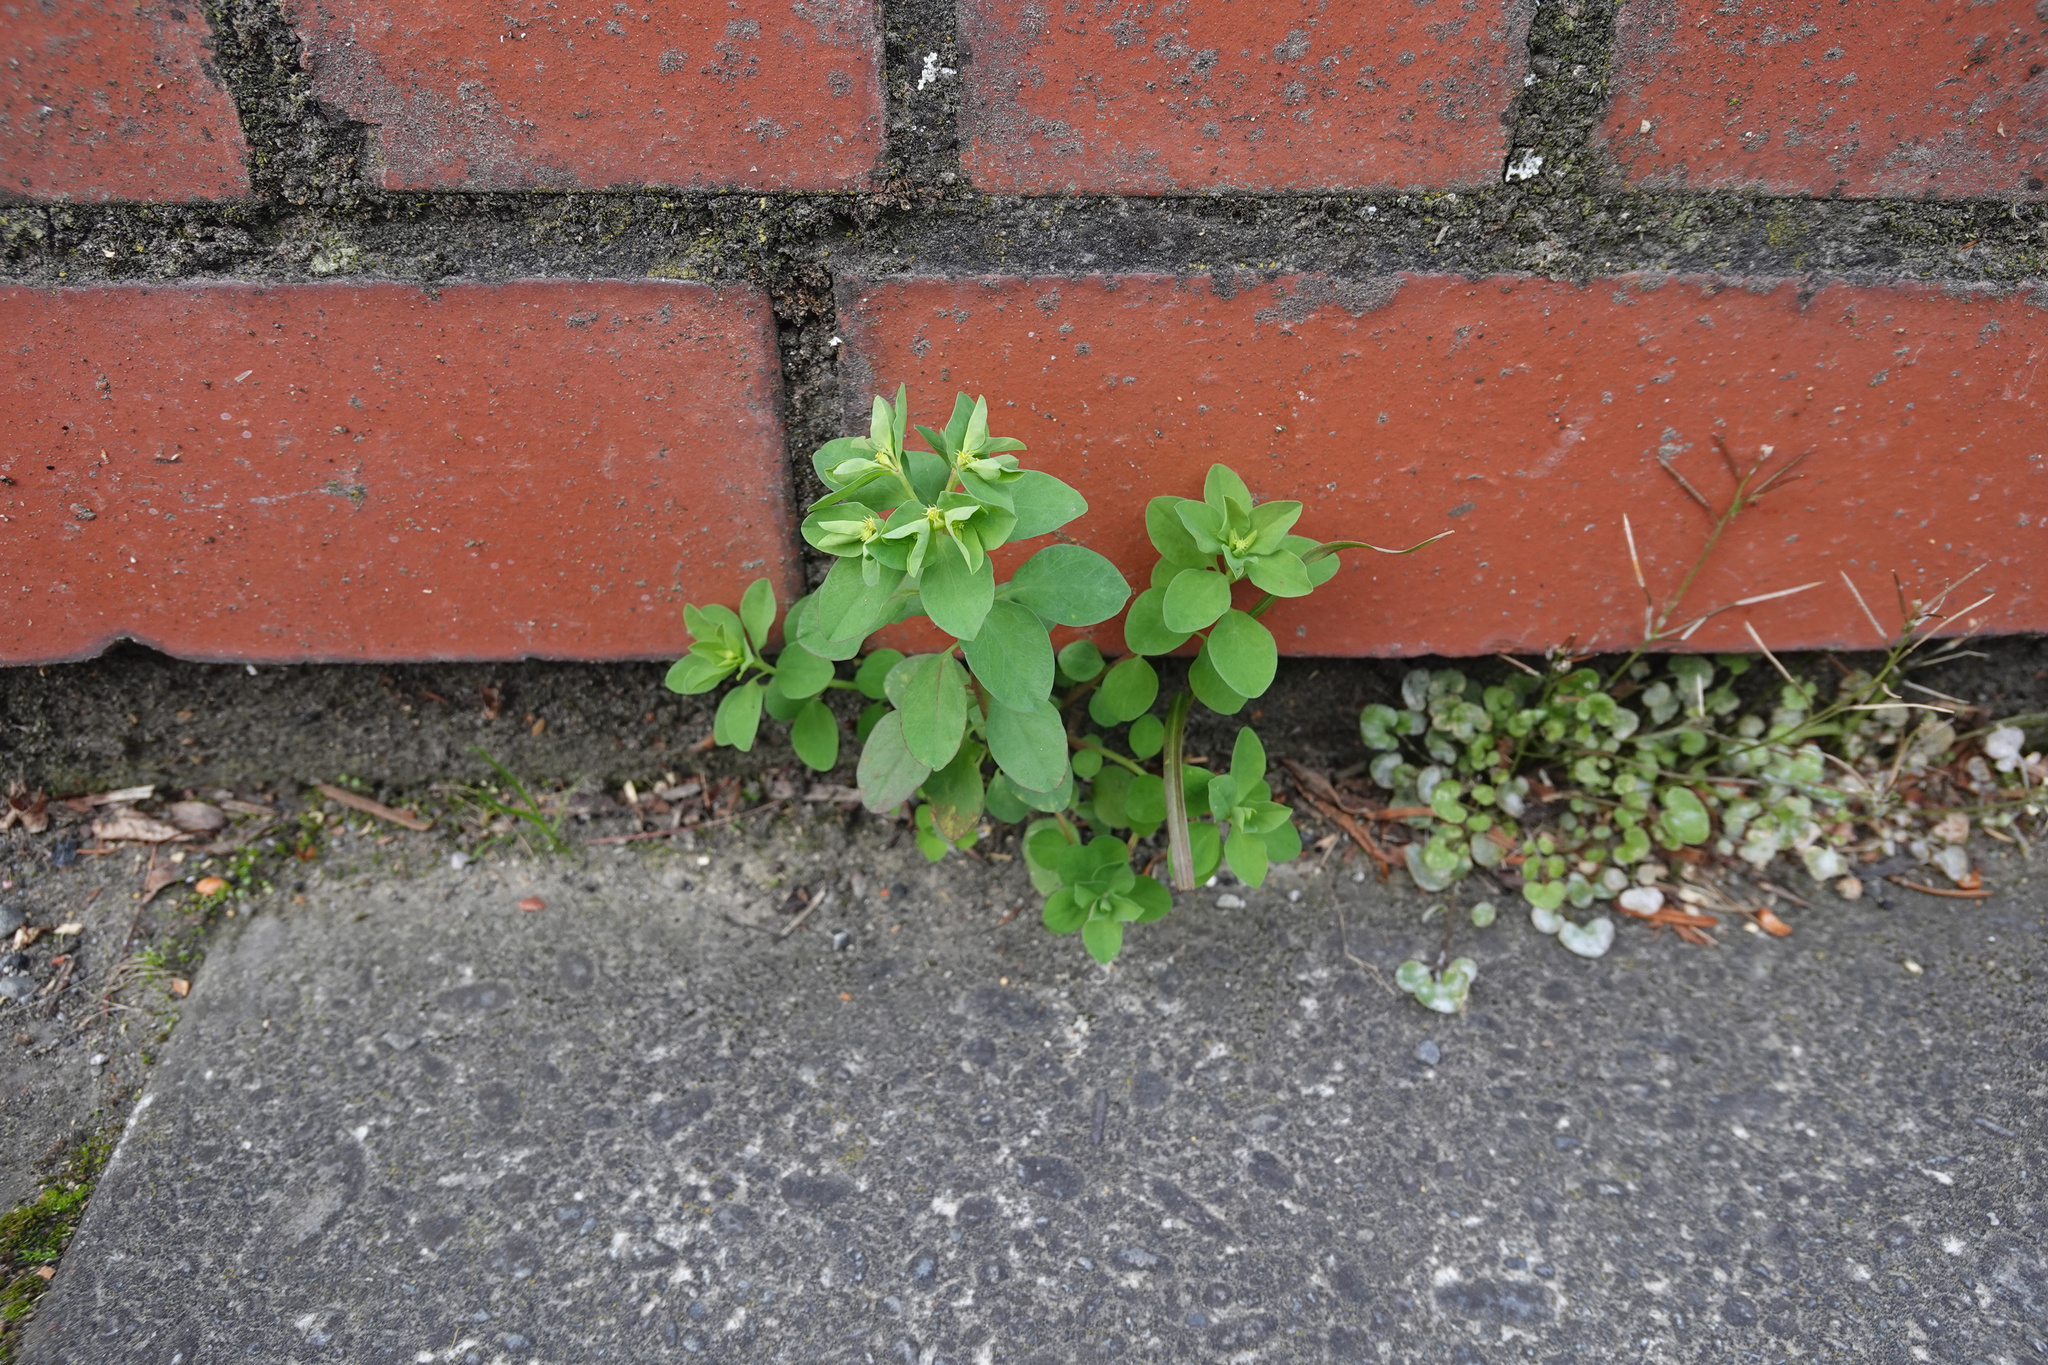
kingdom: Plantae
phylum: Tracheophyta
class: Magnoliopsida
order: Malpighiales
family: Euphorbiaceae
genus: Euphorbia
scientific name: Euphorbia peplus
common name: Petty spurge
